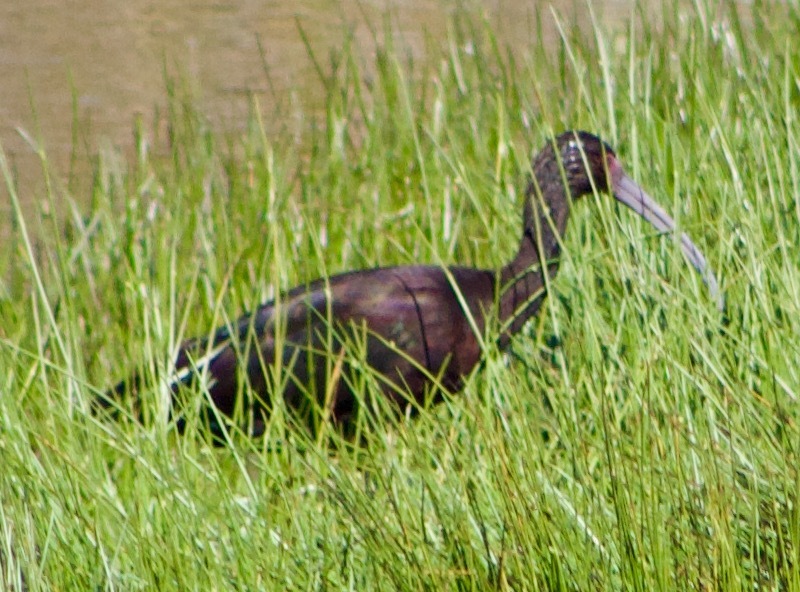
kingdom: Animalia
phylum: Chordata
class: Aves
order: Pelecaniformes
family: Threskiornithidae
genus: Plegadis
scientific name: Plegadis chihi
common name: White-faced ibis
